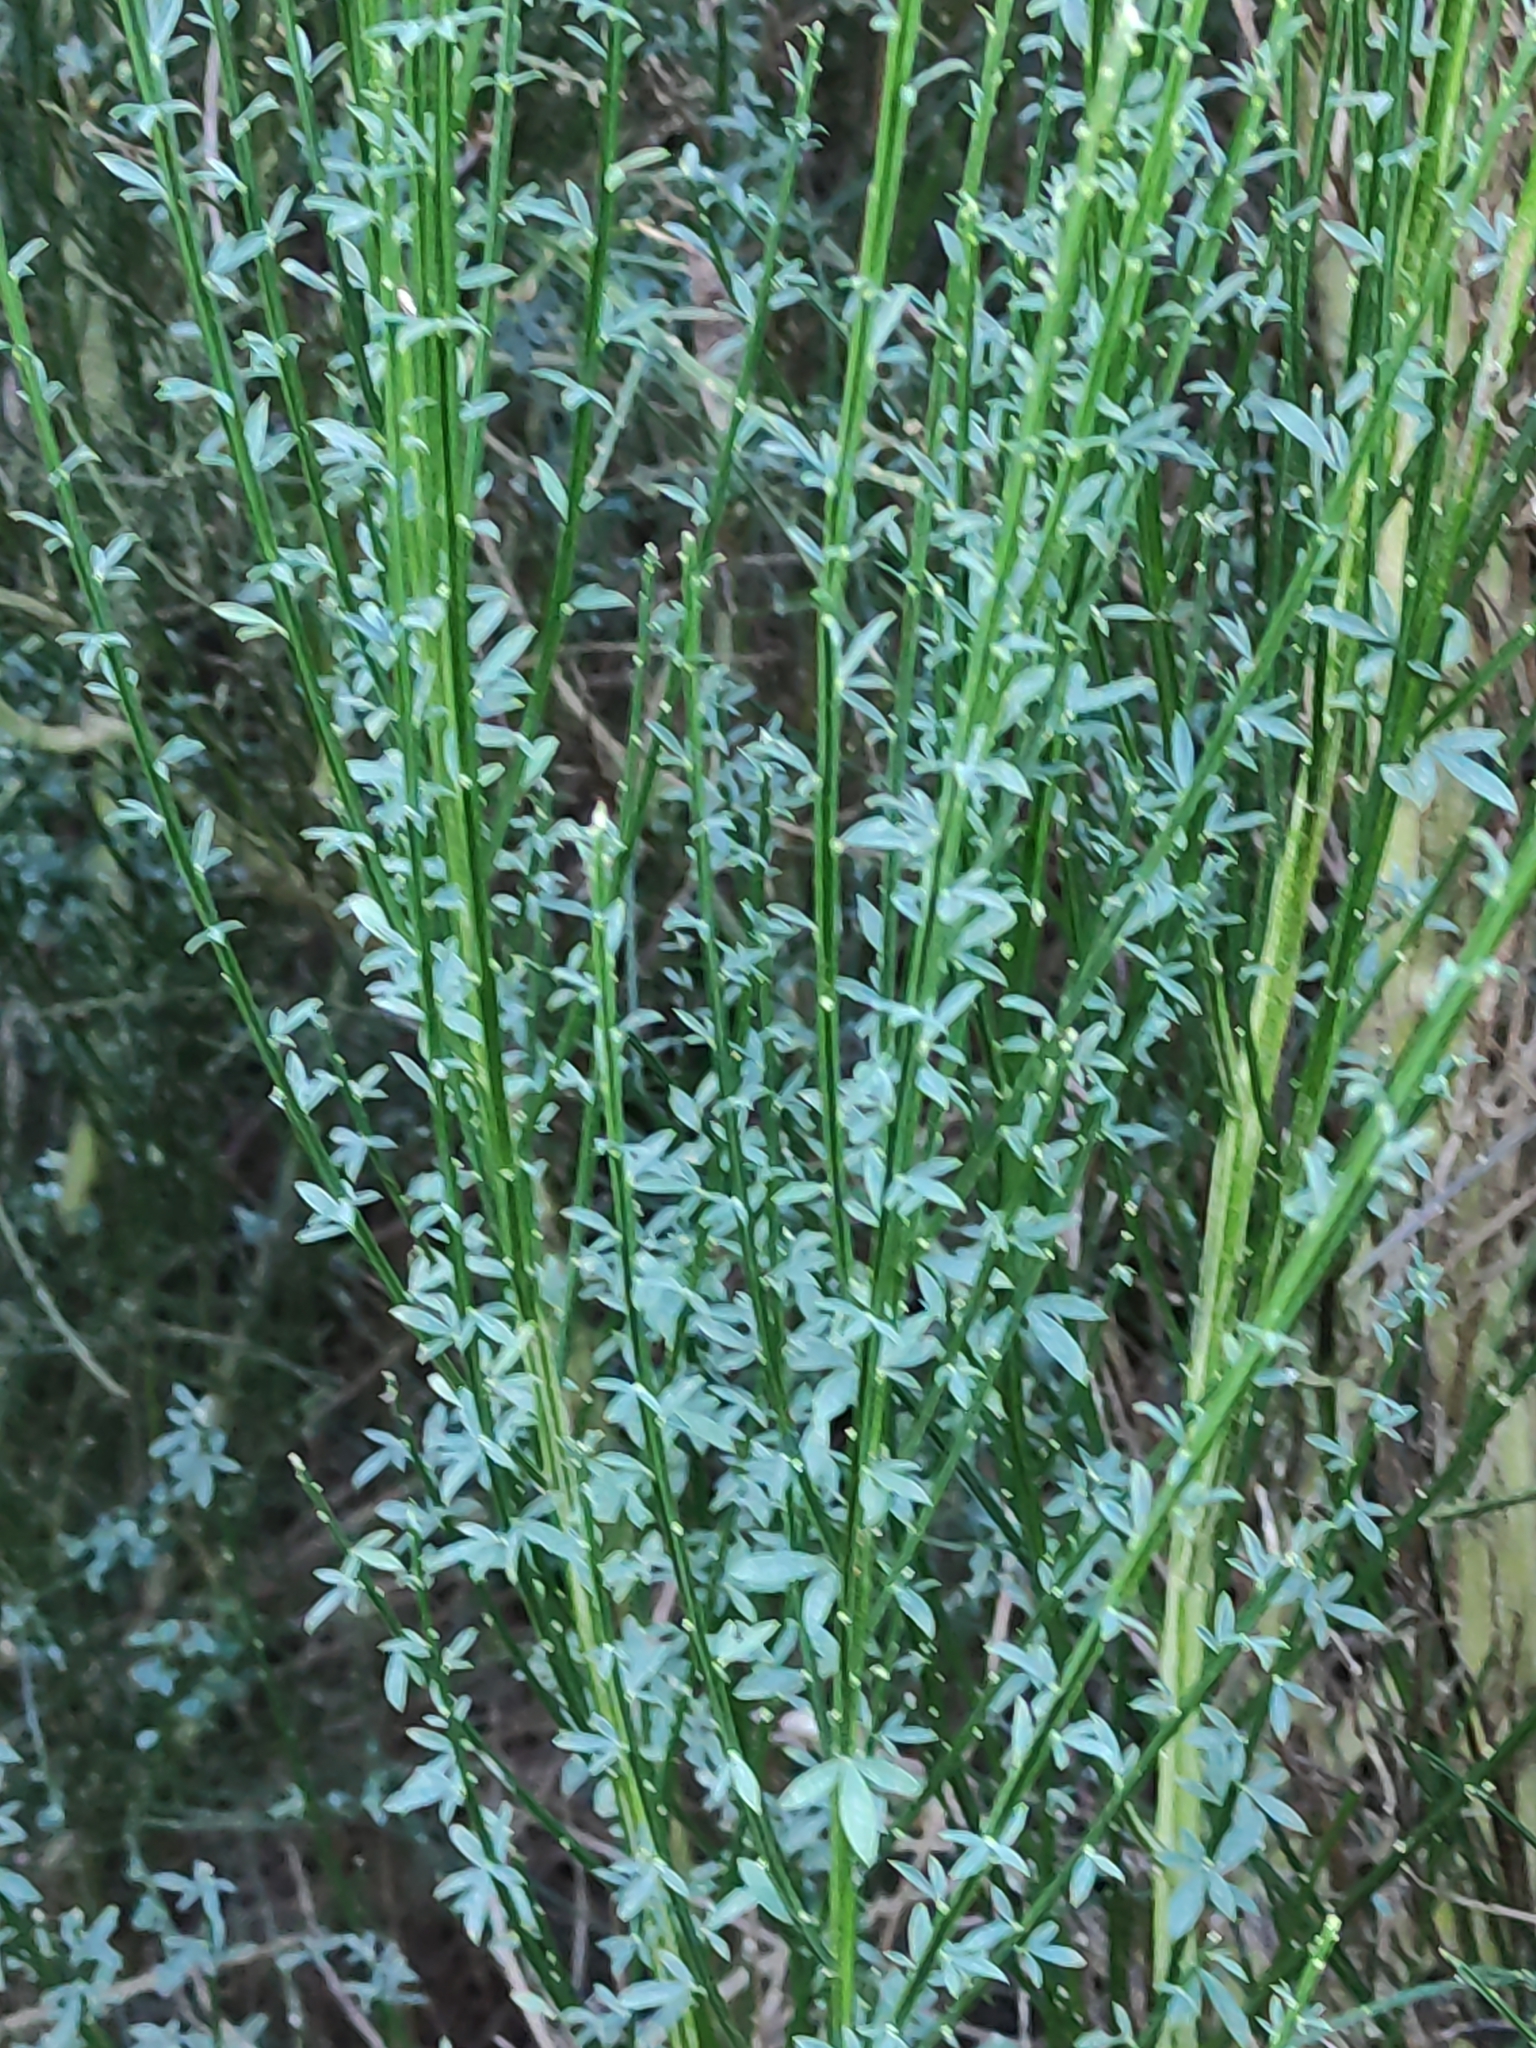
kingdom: Plantae
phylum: Tracheophyta
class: Magnoliopsida
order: Fabales
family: Fabaceae
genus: Cytisus
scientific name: Cytisus scoparius
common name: Scotch broom
